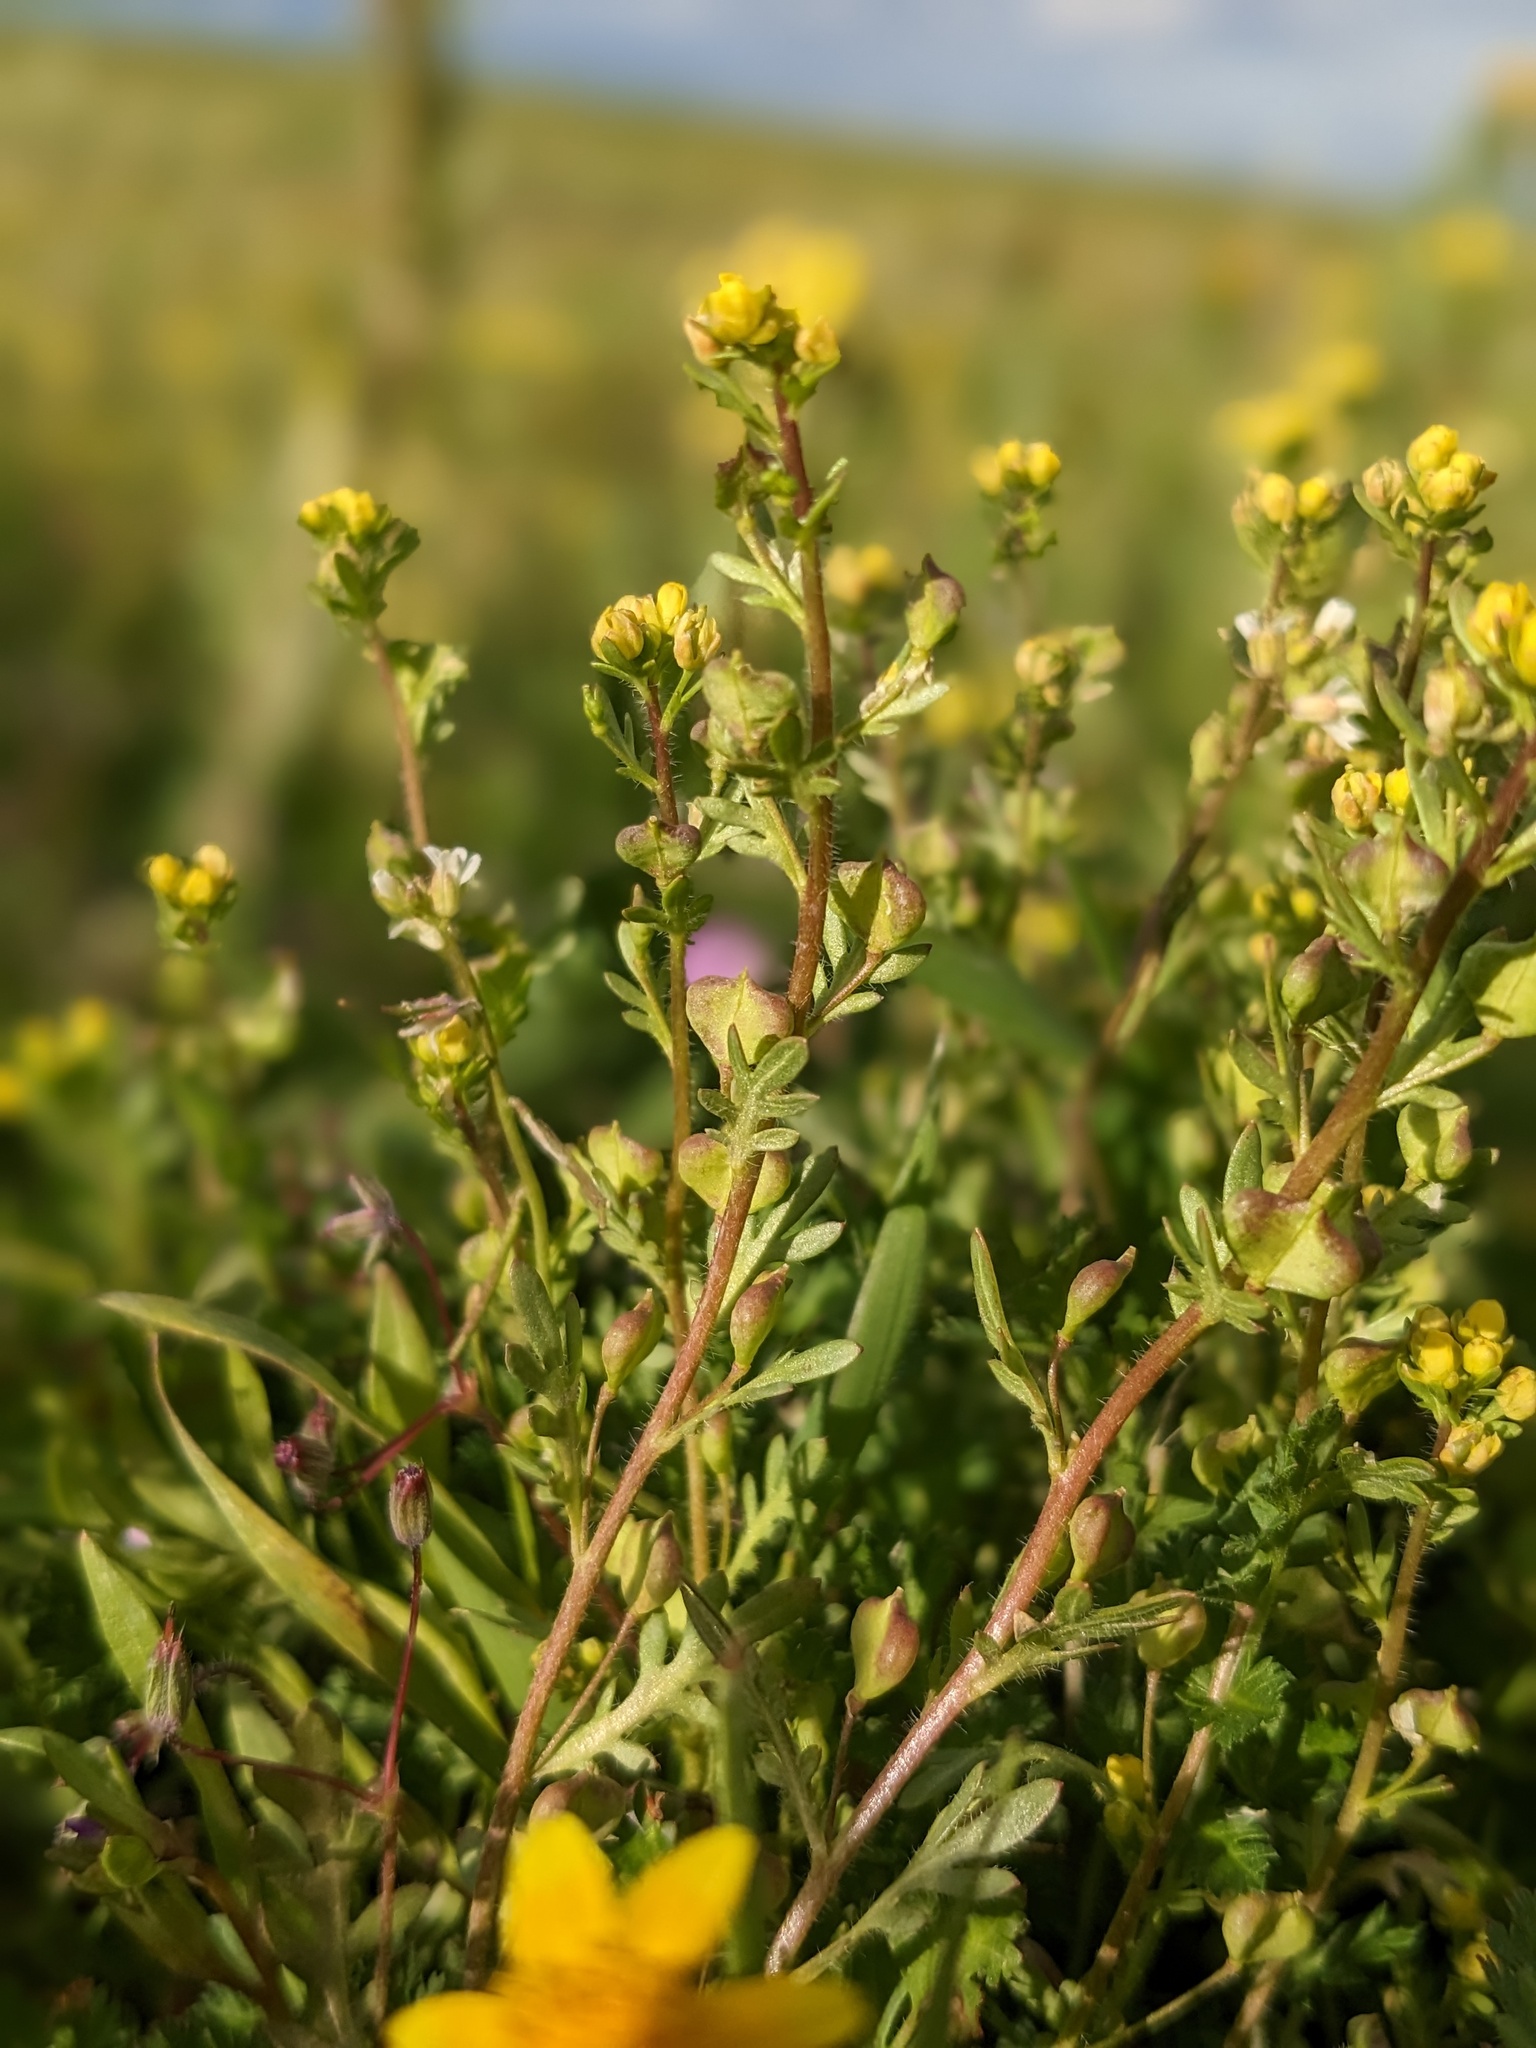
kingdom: Plantae
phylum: Tracheophyta
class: Magnoliopsida
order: Brassicales
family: Brassicaceae
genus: Tropidocarpum
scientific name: Tropidocarpum californicum
